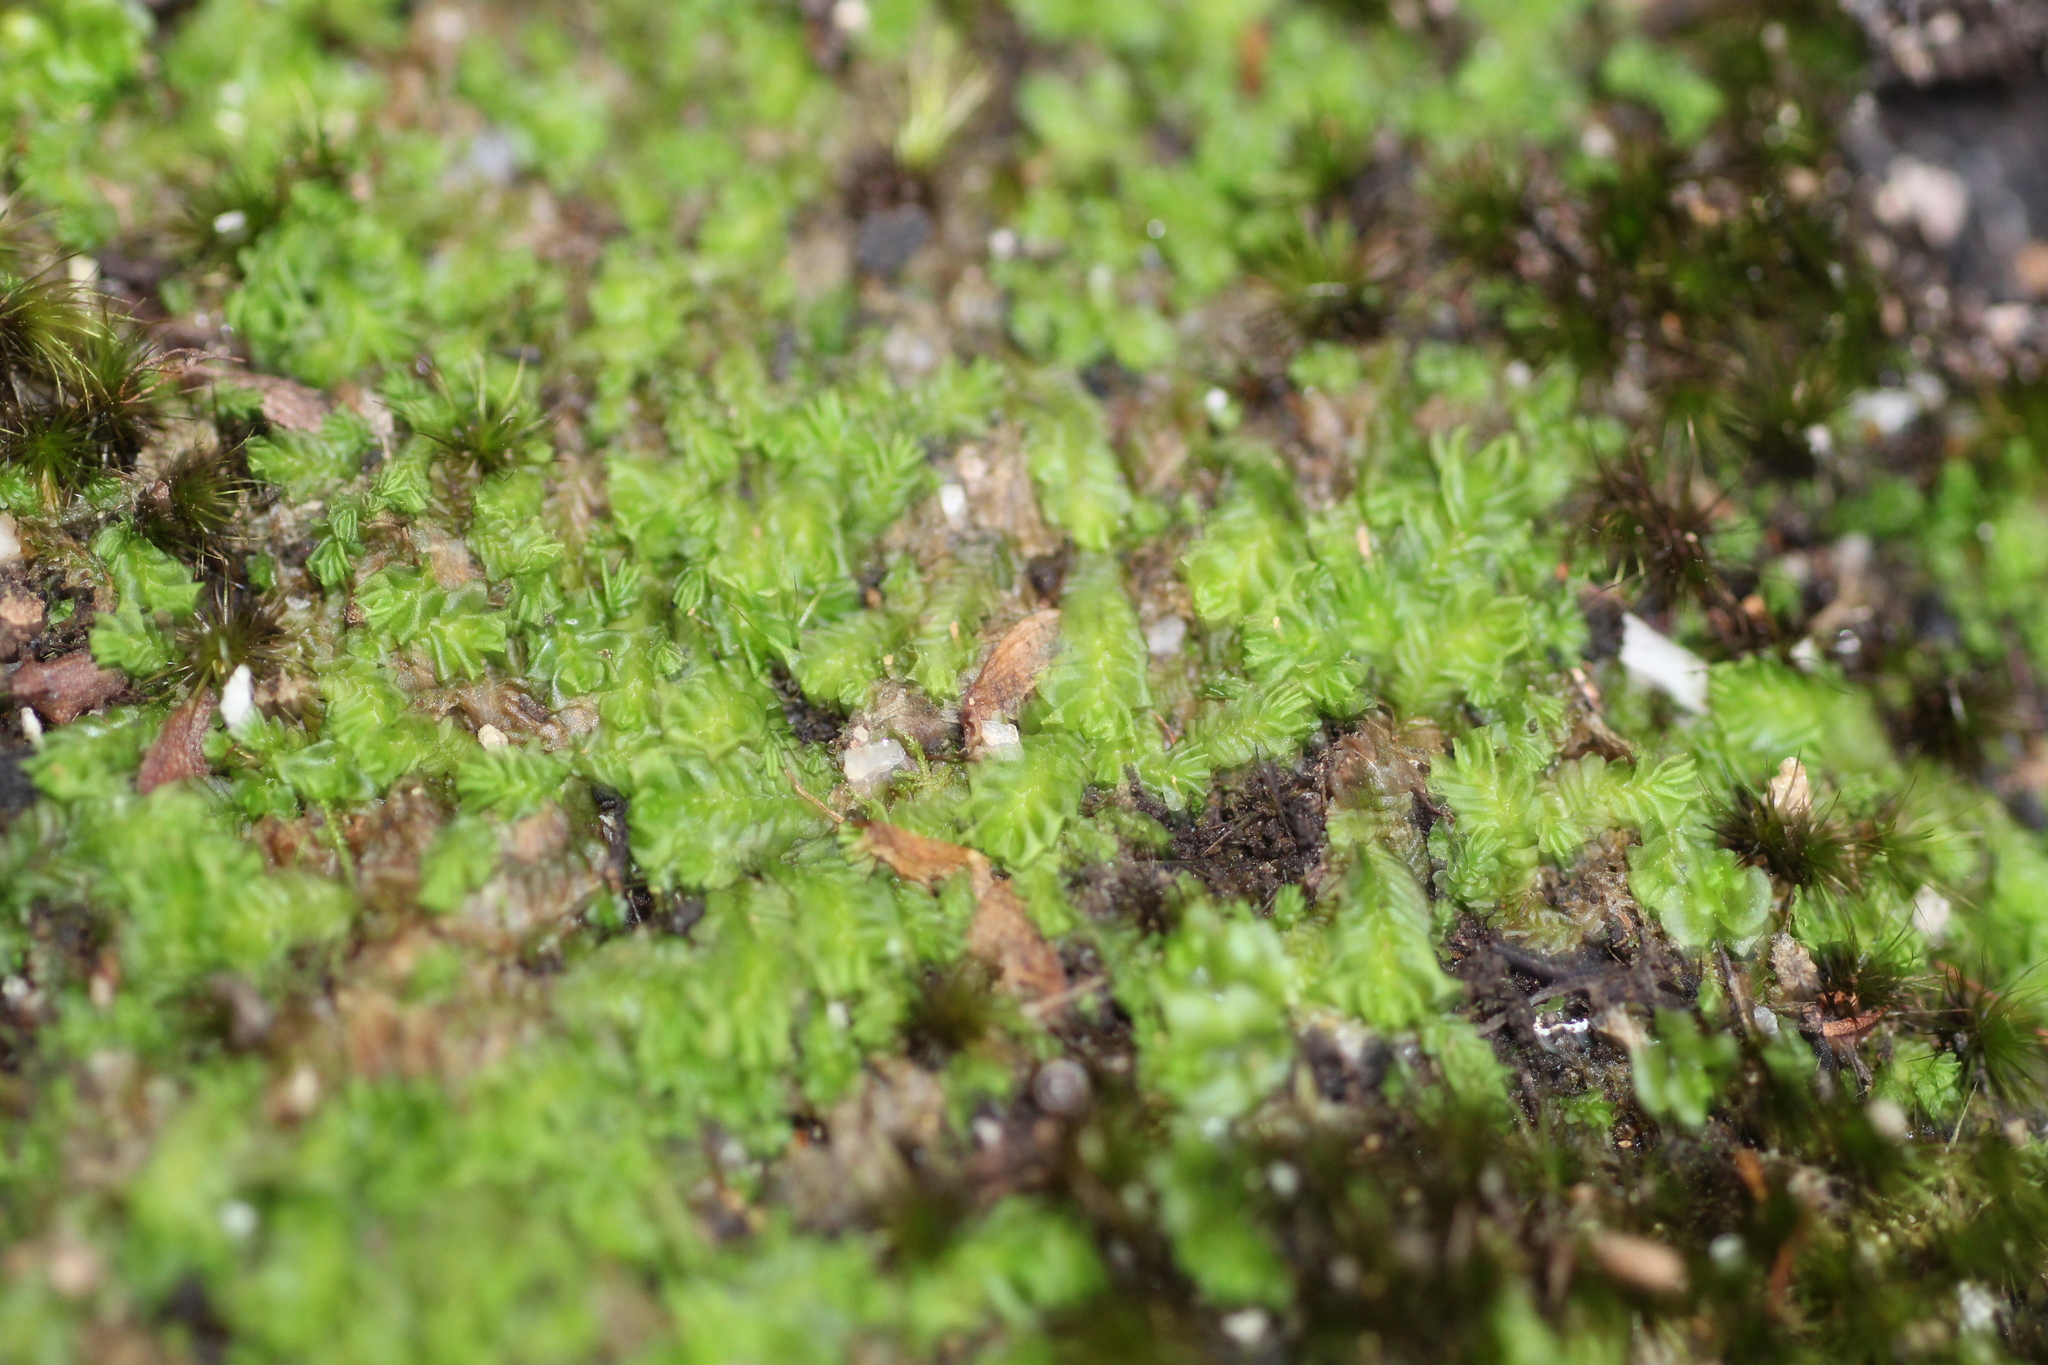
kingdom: Plantae
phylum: Marchantiophyta
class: Jungermanniopsida
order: Jungermanniales
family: Acrobolbaceae
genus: Lethocolea
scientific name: Lethocolea pansa
